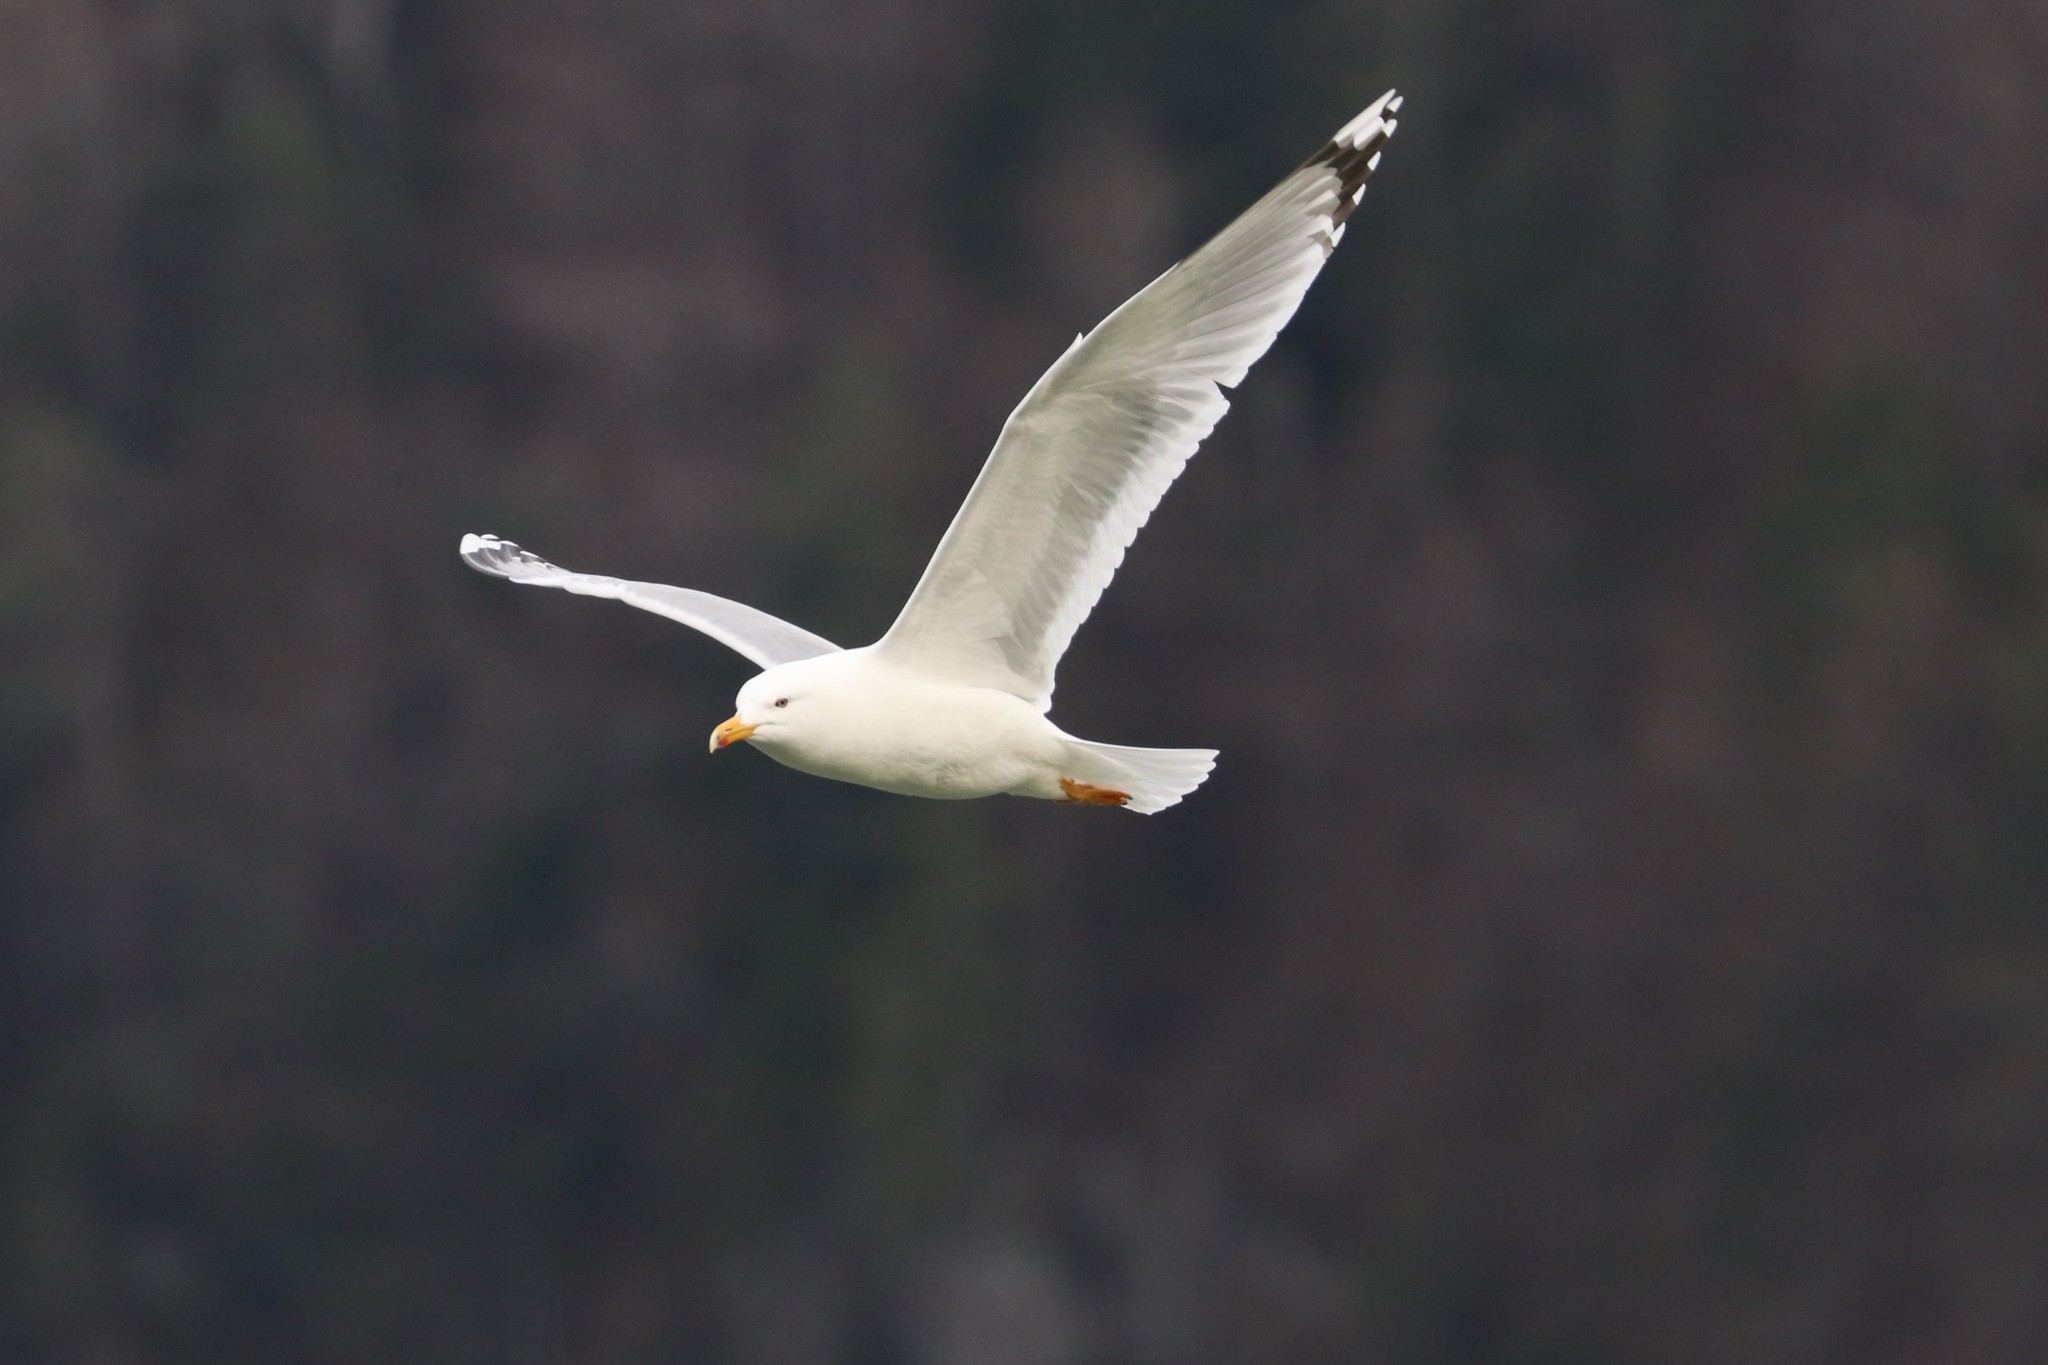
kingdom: Animalia
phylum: Chordata
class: Aves
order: Charadriiformes
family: Laridae
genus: Larus
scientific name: Larus michahellis
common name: Yellow-legged gull
